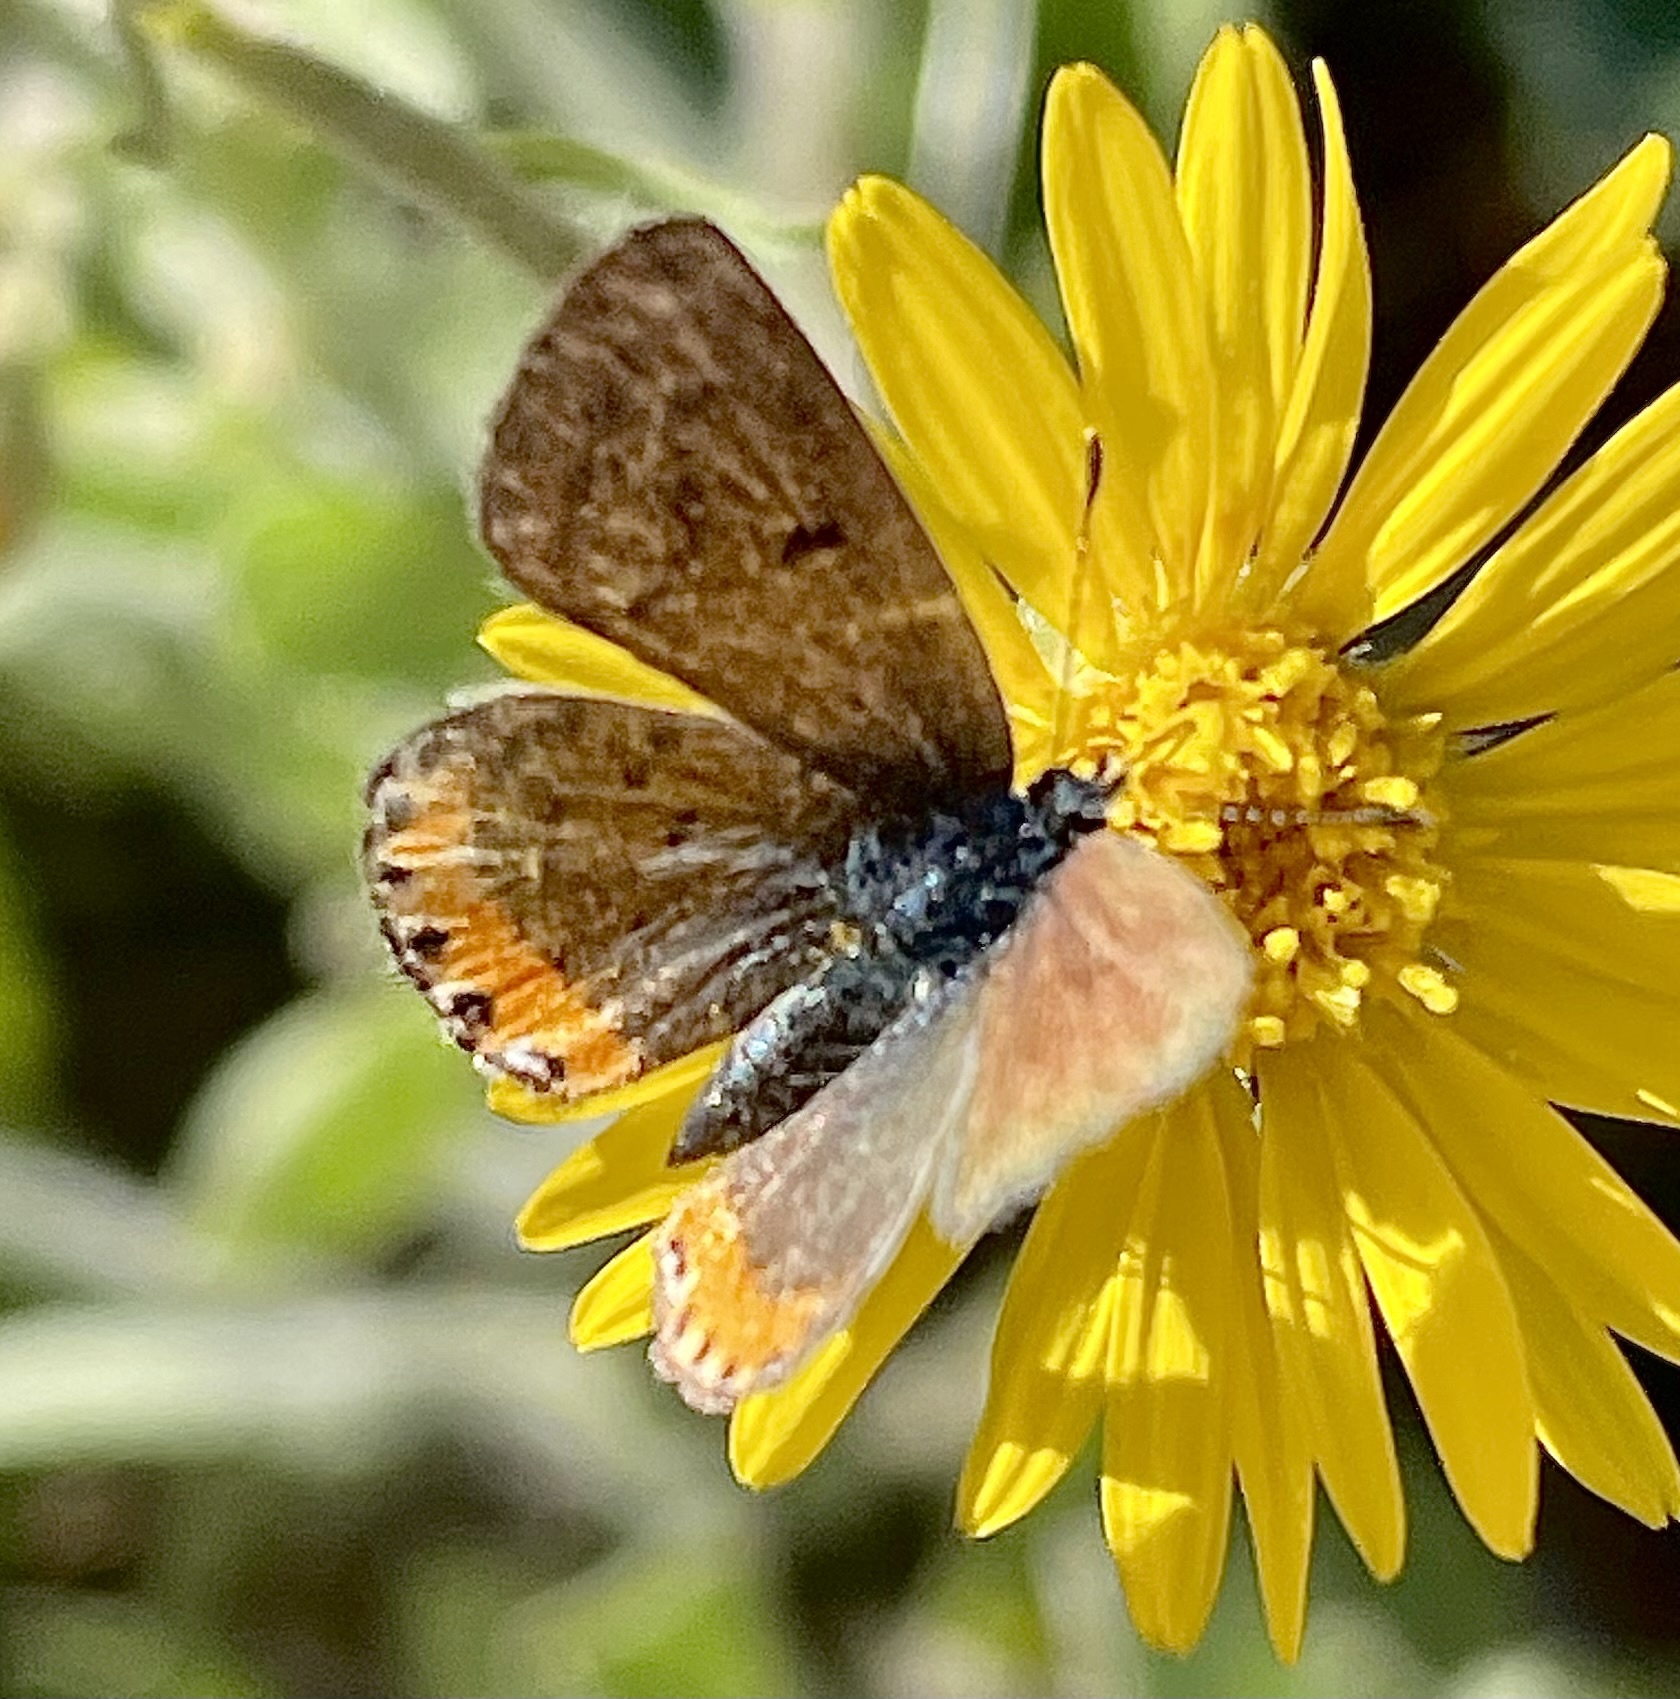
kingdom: Animalia
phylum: Arthropoda
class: Insecta
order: Lepidoptera
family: Lycaenidae
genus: Icaricia
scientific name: Icaricia acmon
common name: Acmon blue
